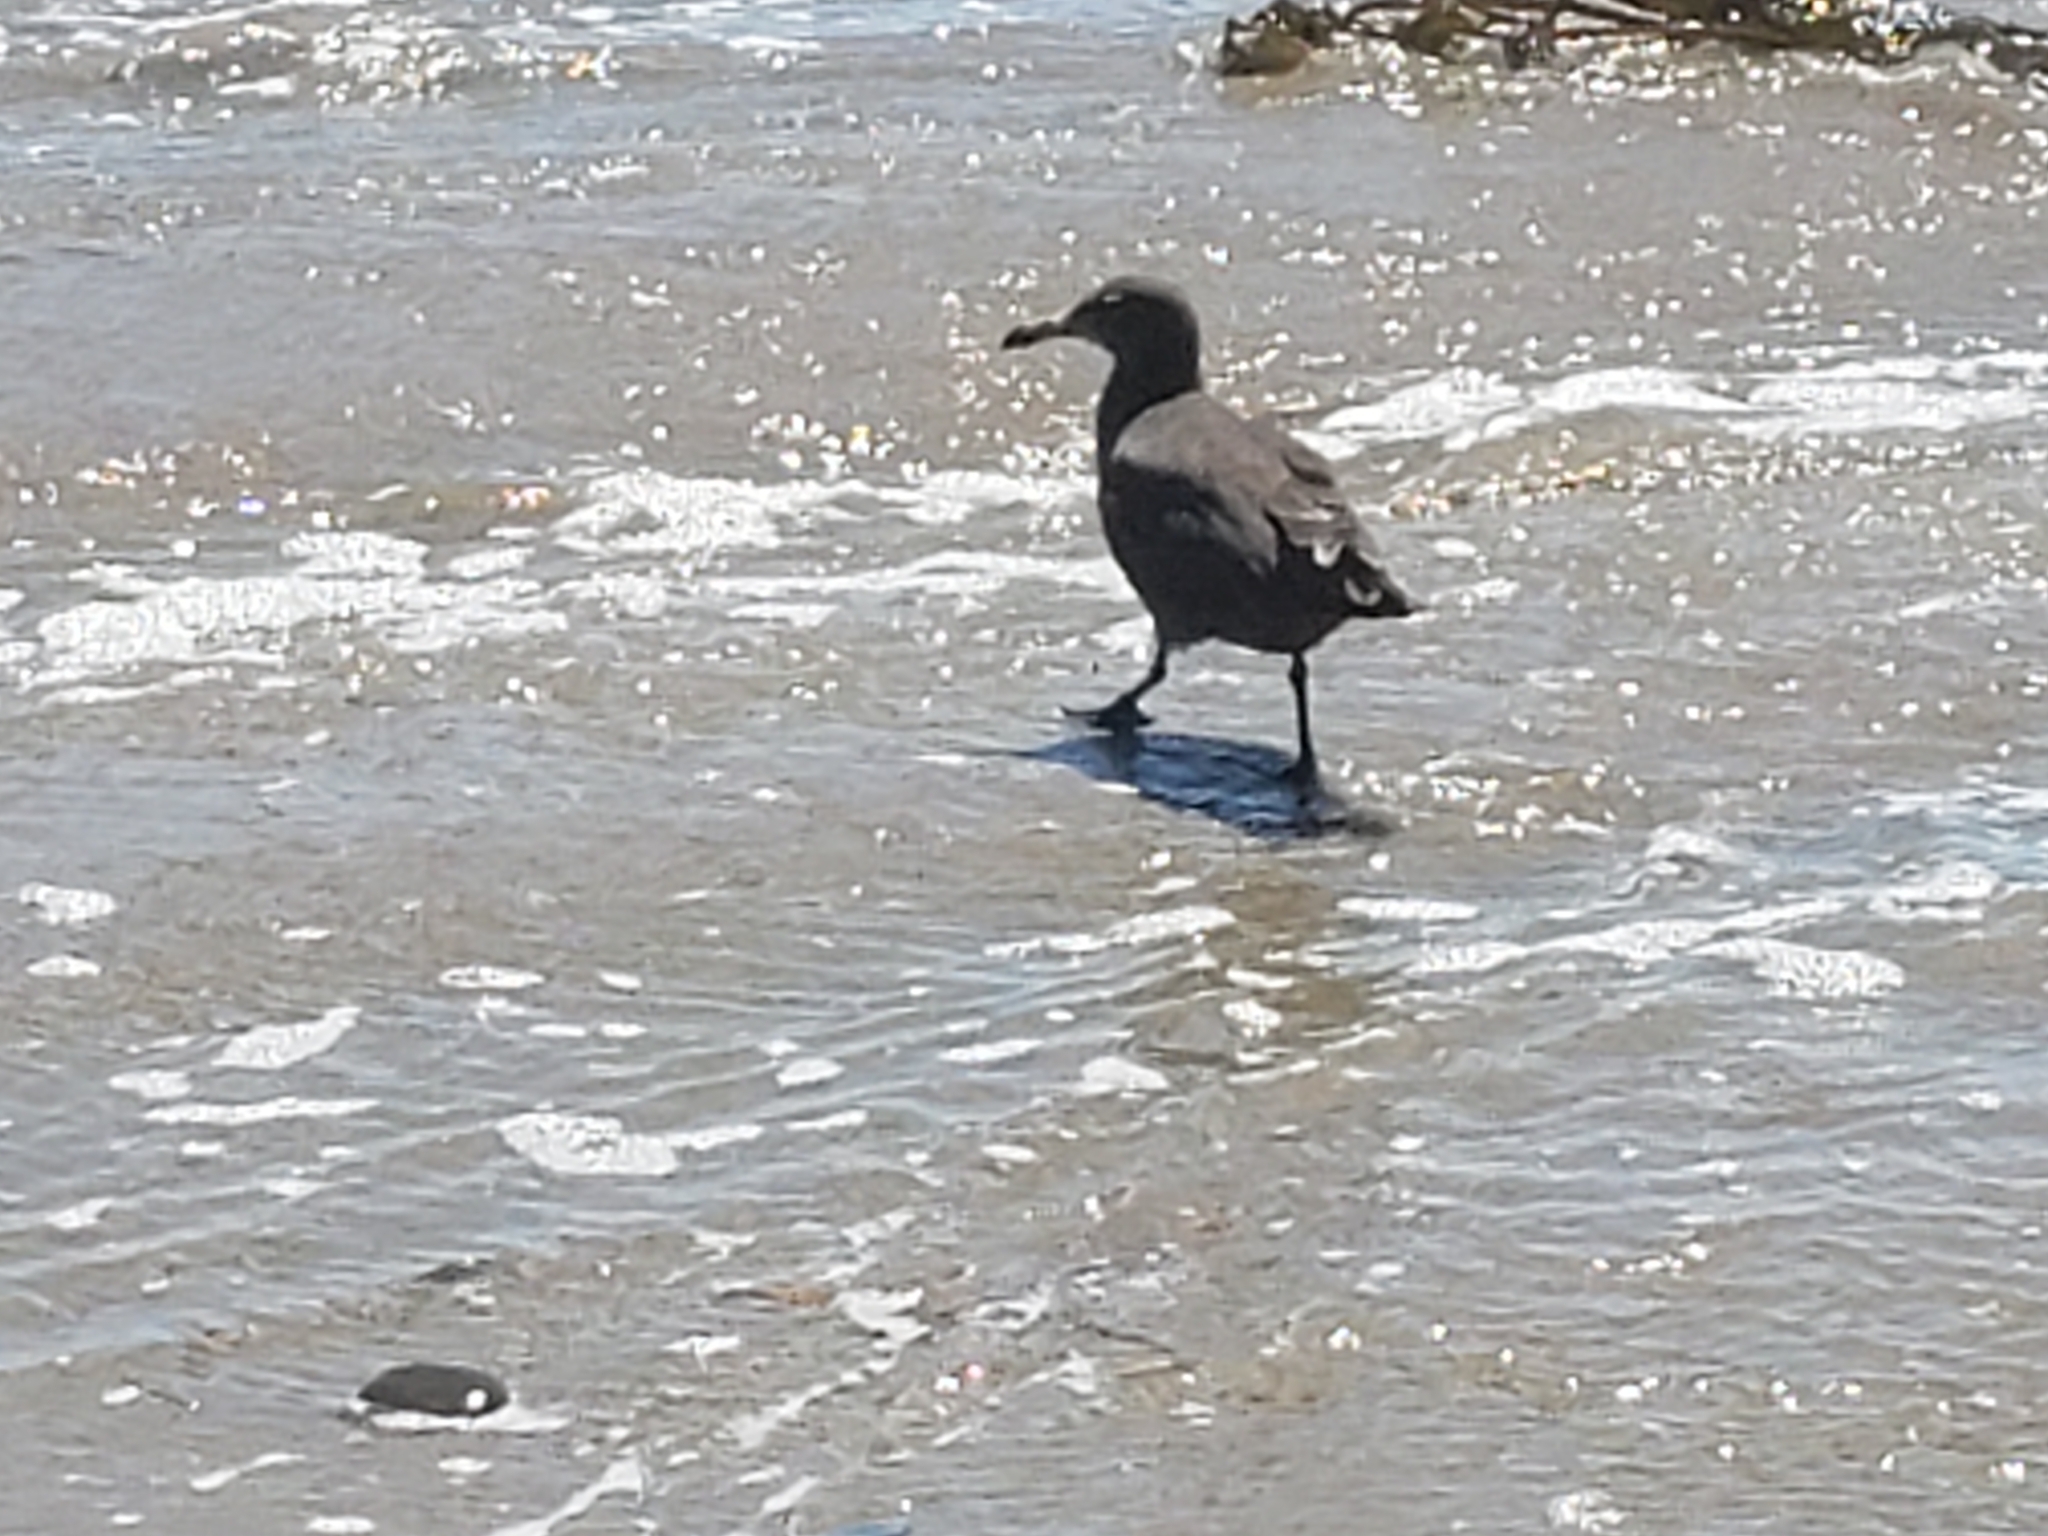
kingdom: Animalia
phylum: Chordata
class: Aves
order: Charadriiformes
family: Laridae
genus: Larus
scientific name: Larus heermanni
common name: Heermann's gull
